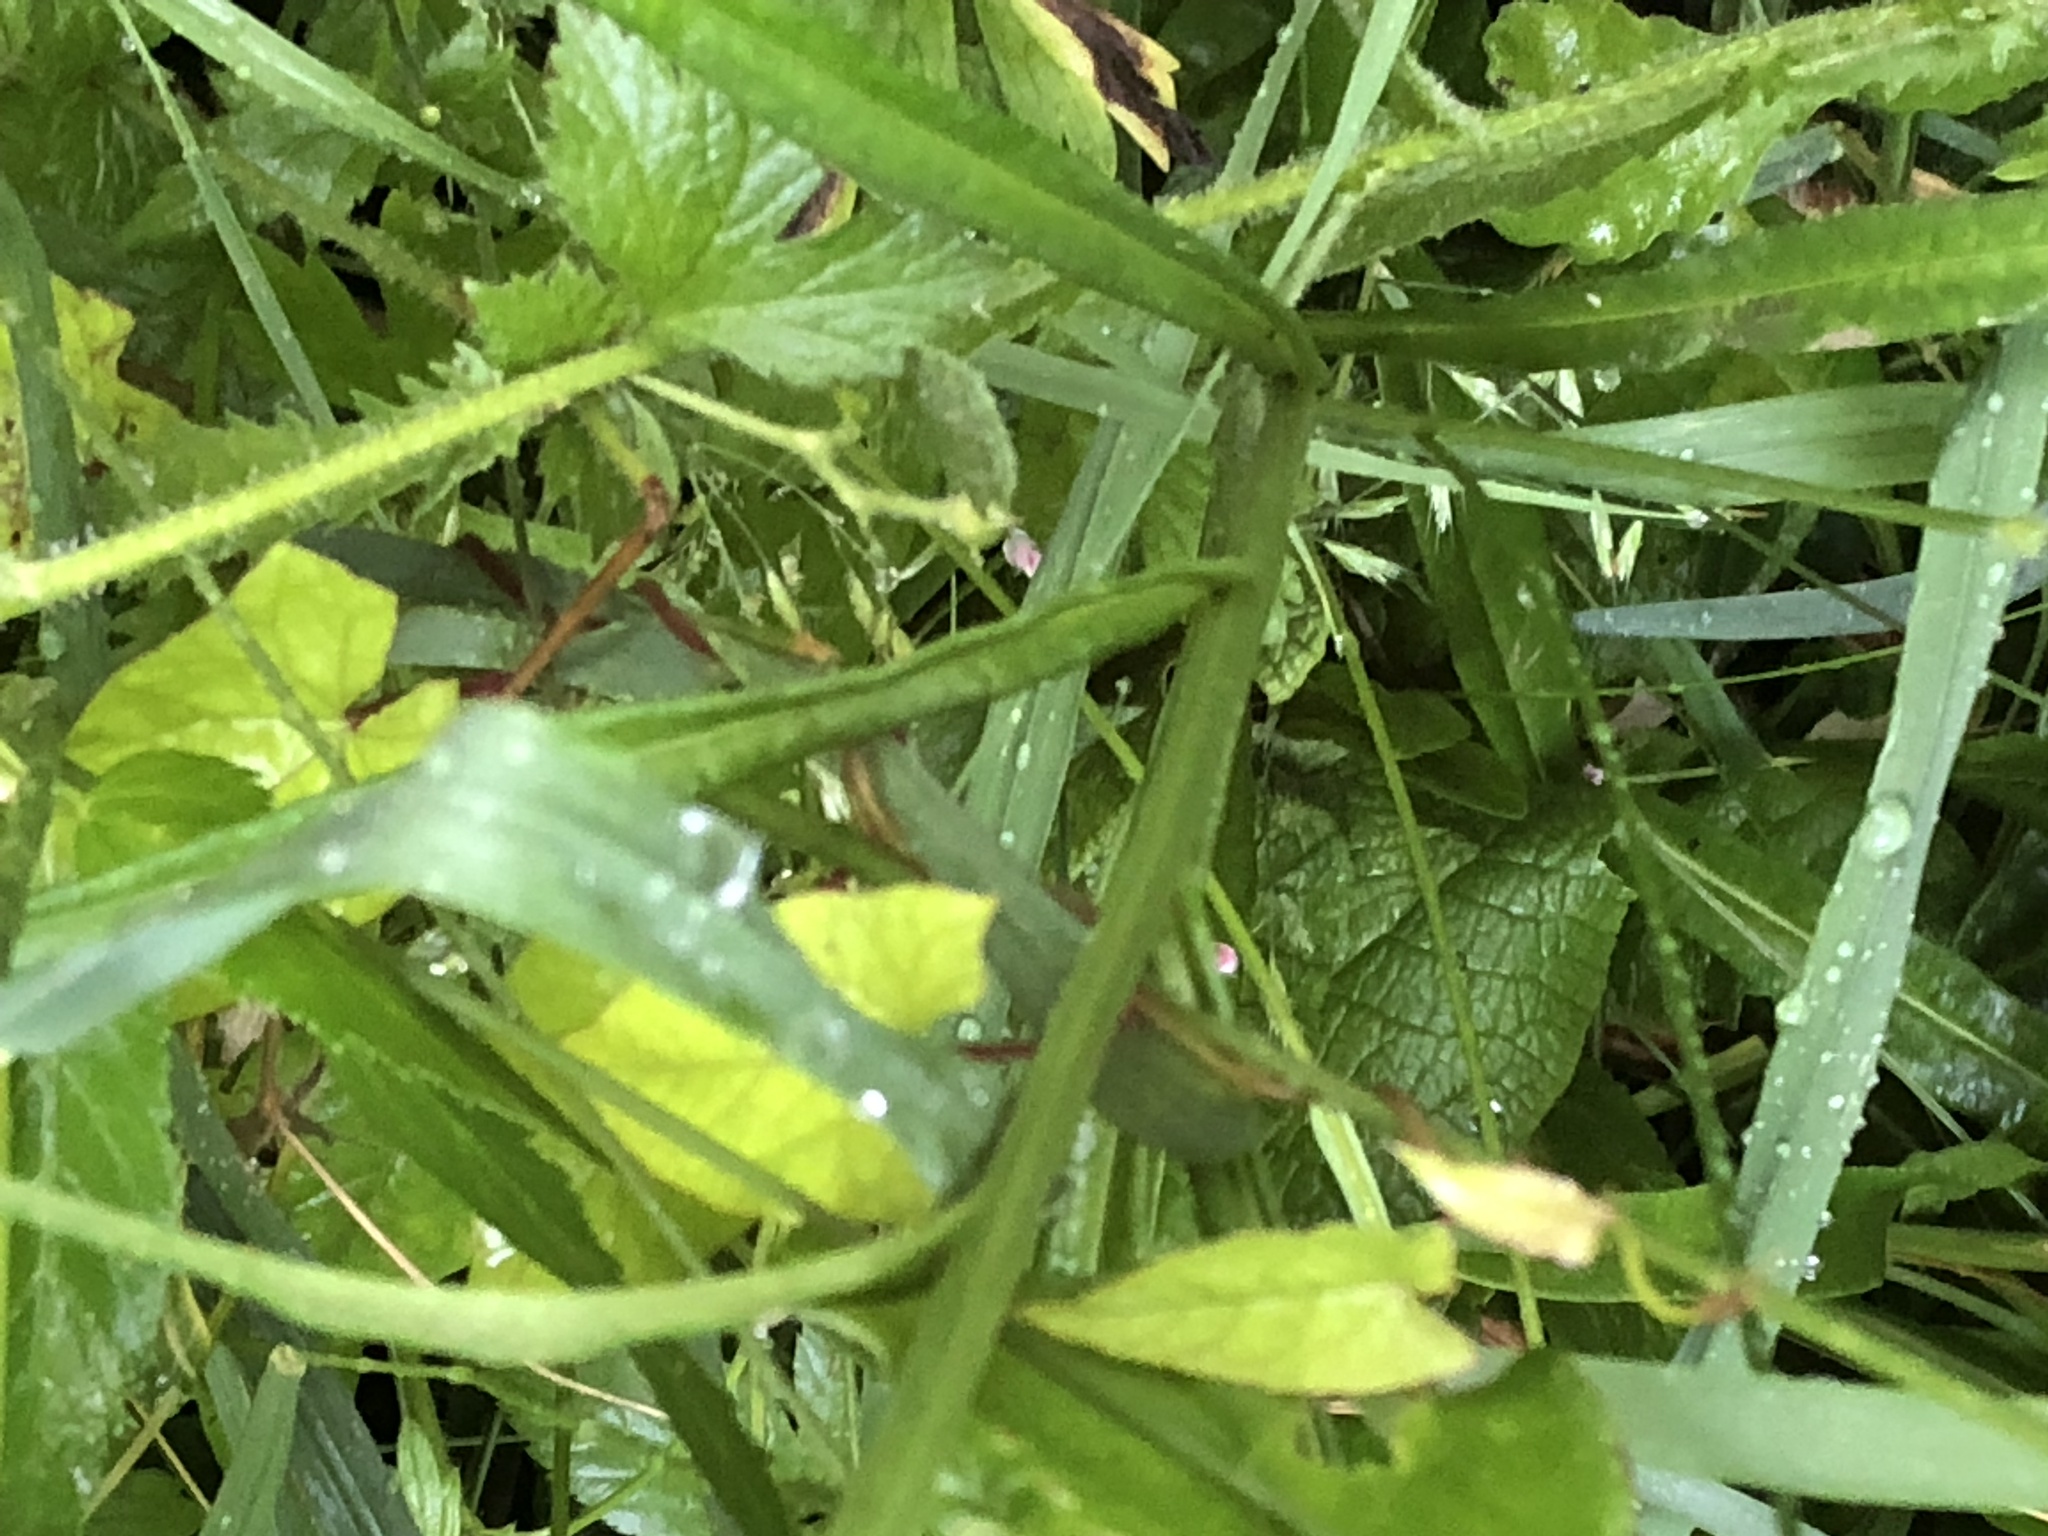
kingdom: Plantae
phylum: Tracheophyta
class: Magnoliopsida
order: Asterales
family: Campanulaceae
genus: Campanula
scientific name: Campanula persicifolia
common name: Peach-leaved bellflower
